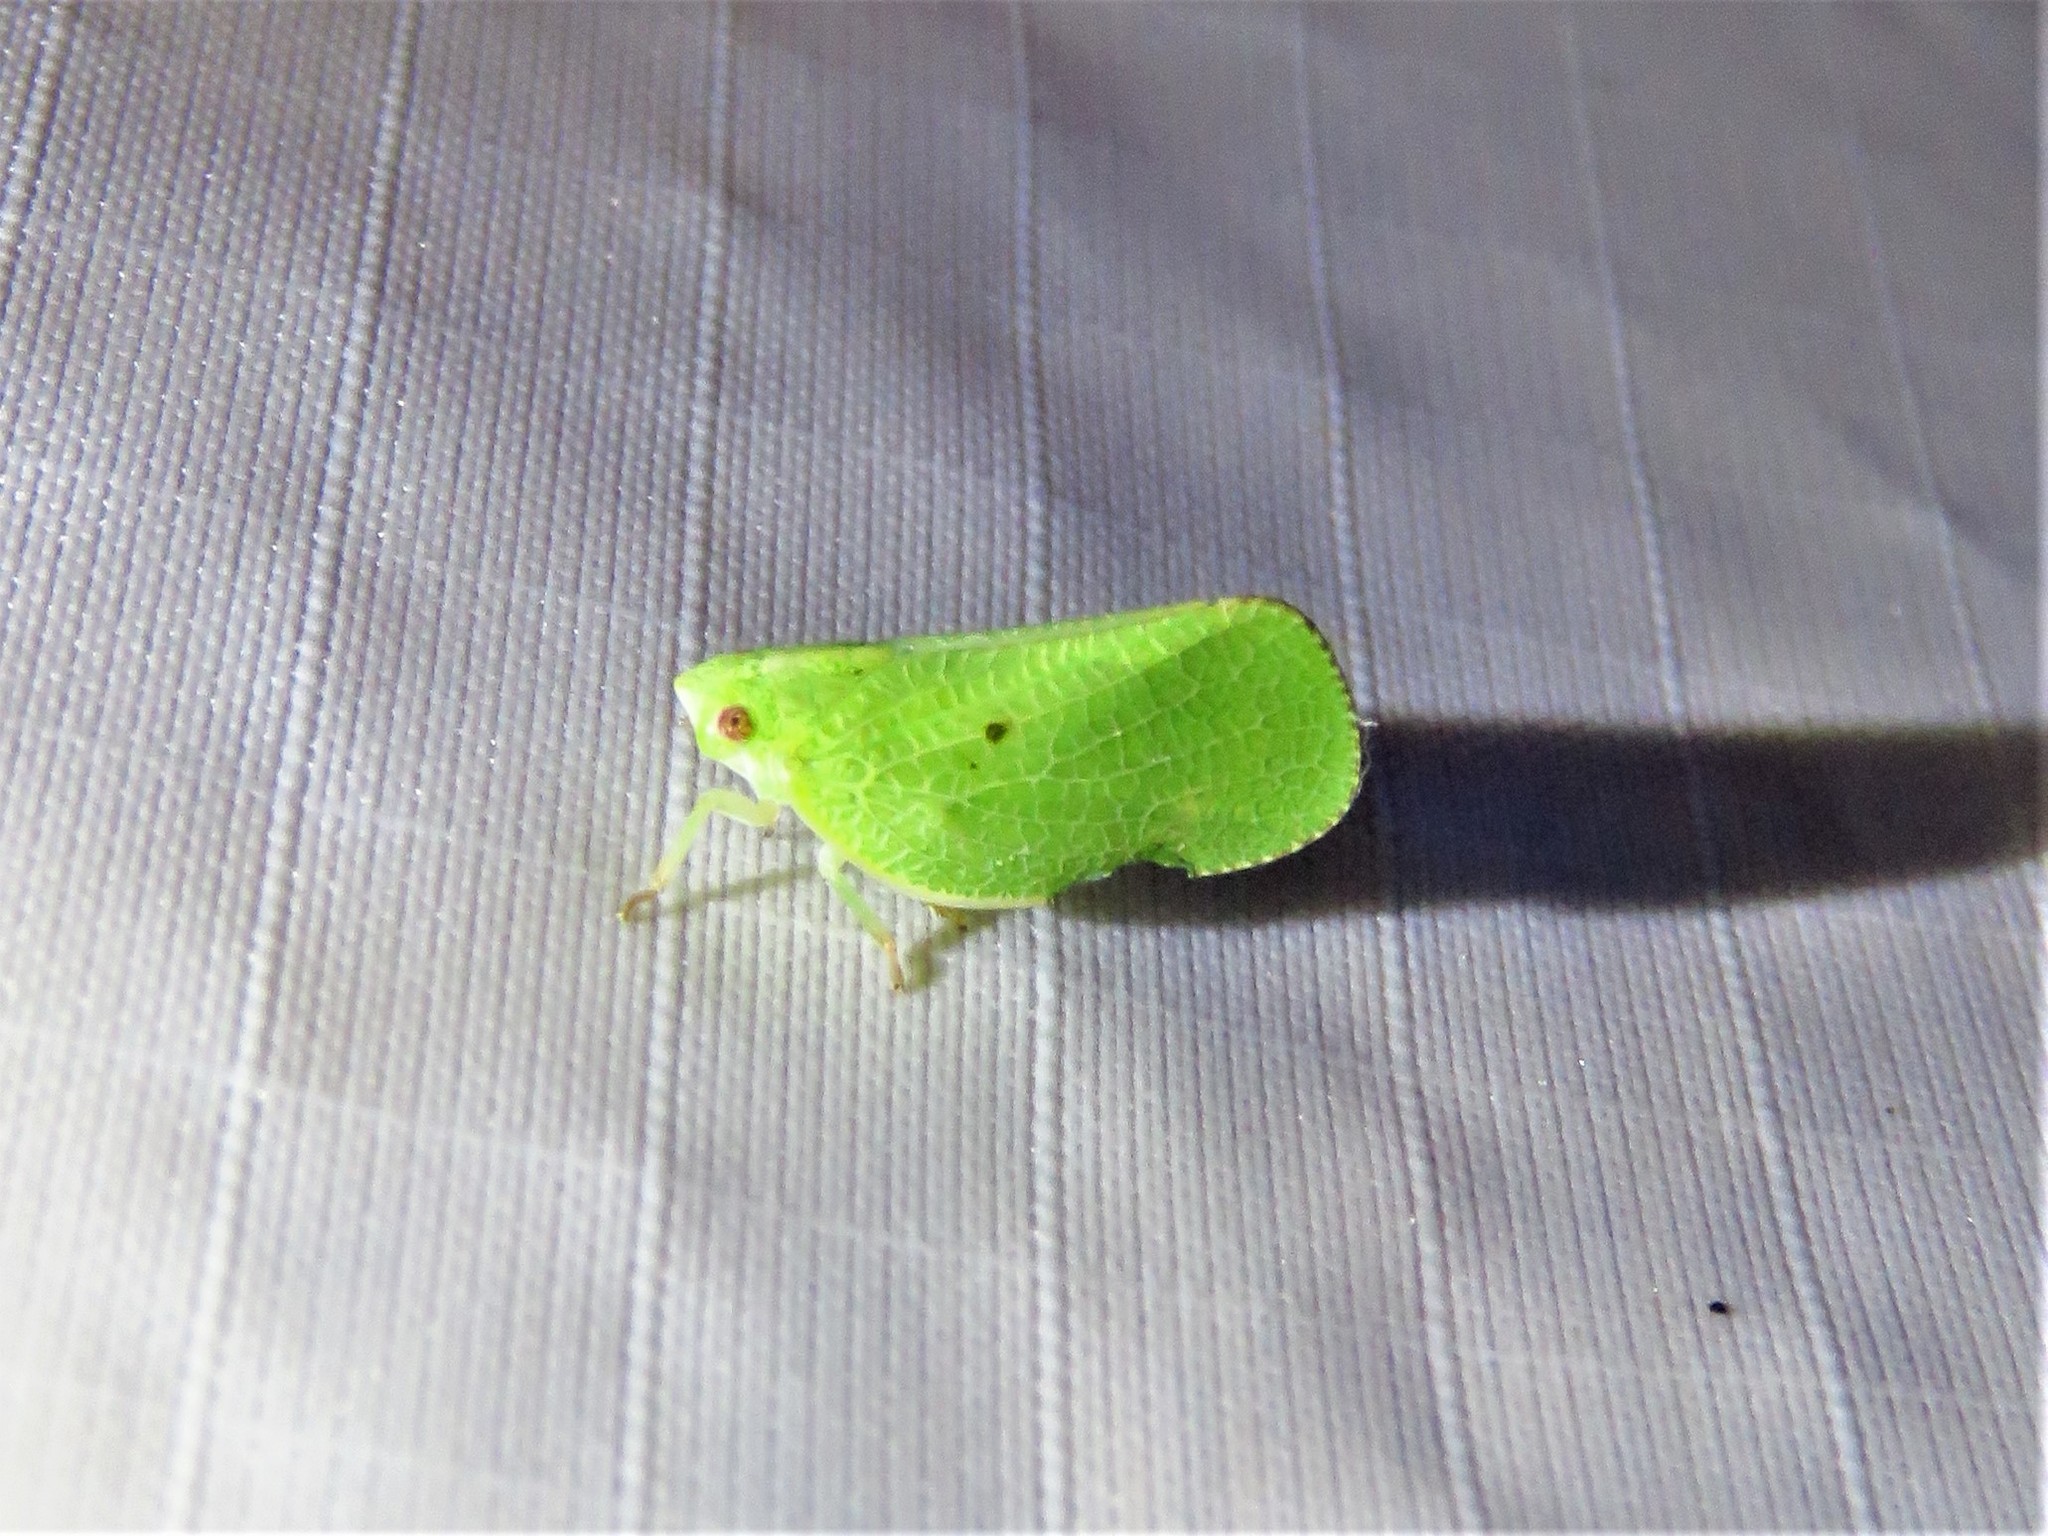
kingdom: Animalia
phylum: Arthropoda
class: Insecta
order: Hemiptera
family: Acanaloniidae
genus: Acanalonia
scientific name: Acanalonia conica
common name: Green cone-headed planthopper
